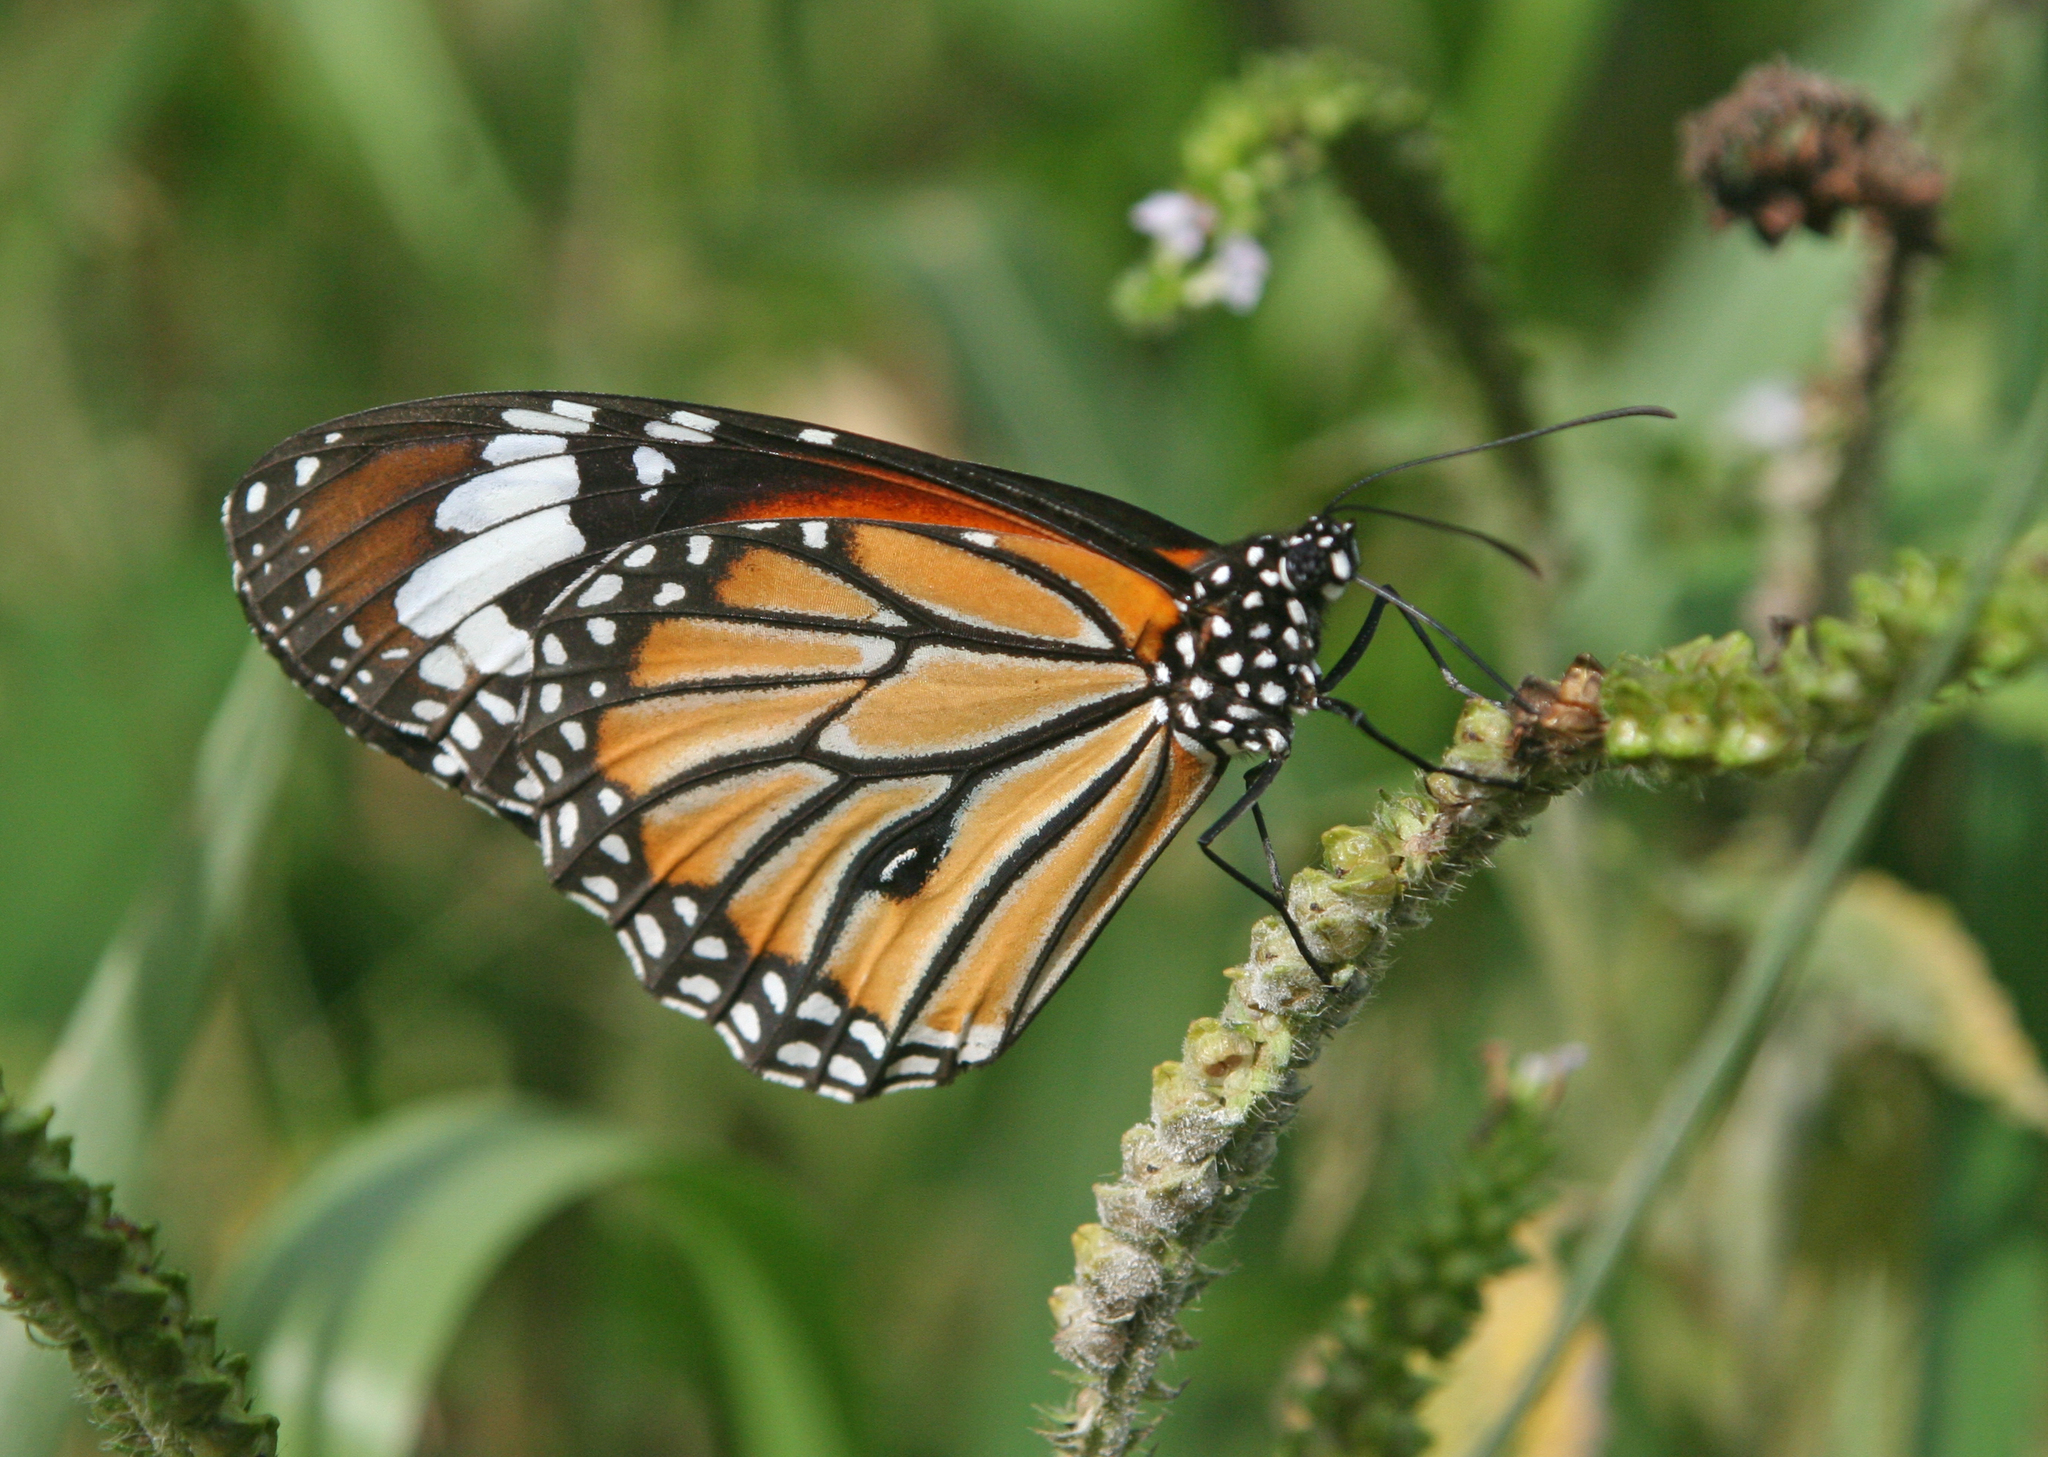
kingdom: Animalia
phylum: Arthropoda
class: Insecta
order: Lepidoptera
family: Nymphalidae
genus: Danaus
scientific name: Danaus genutia
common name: Common tiger butterfly
